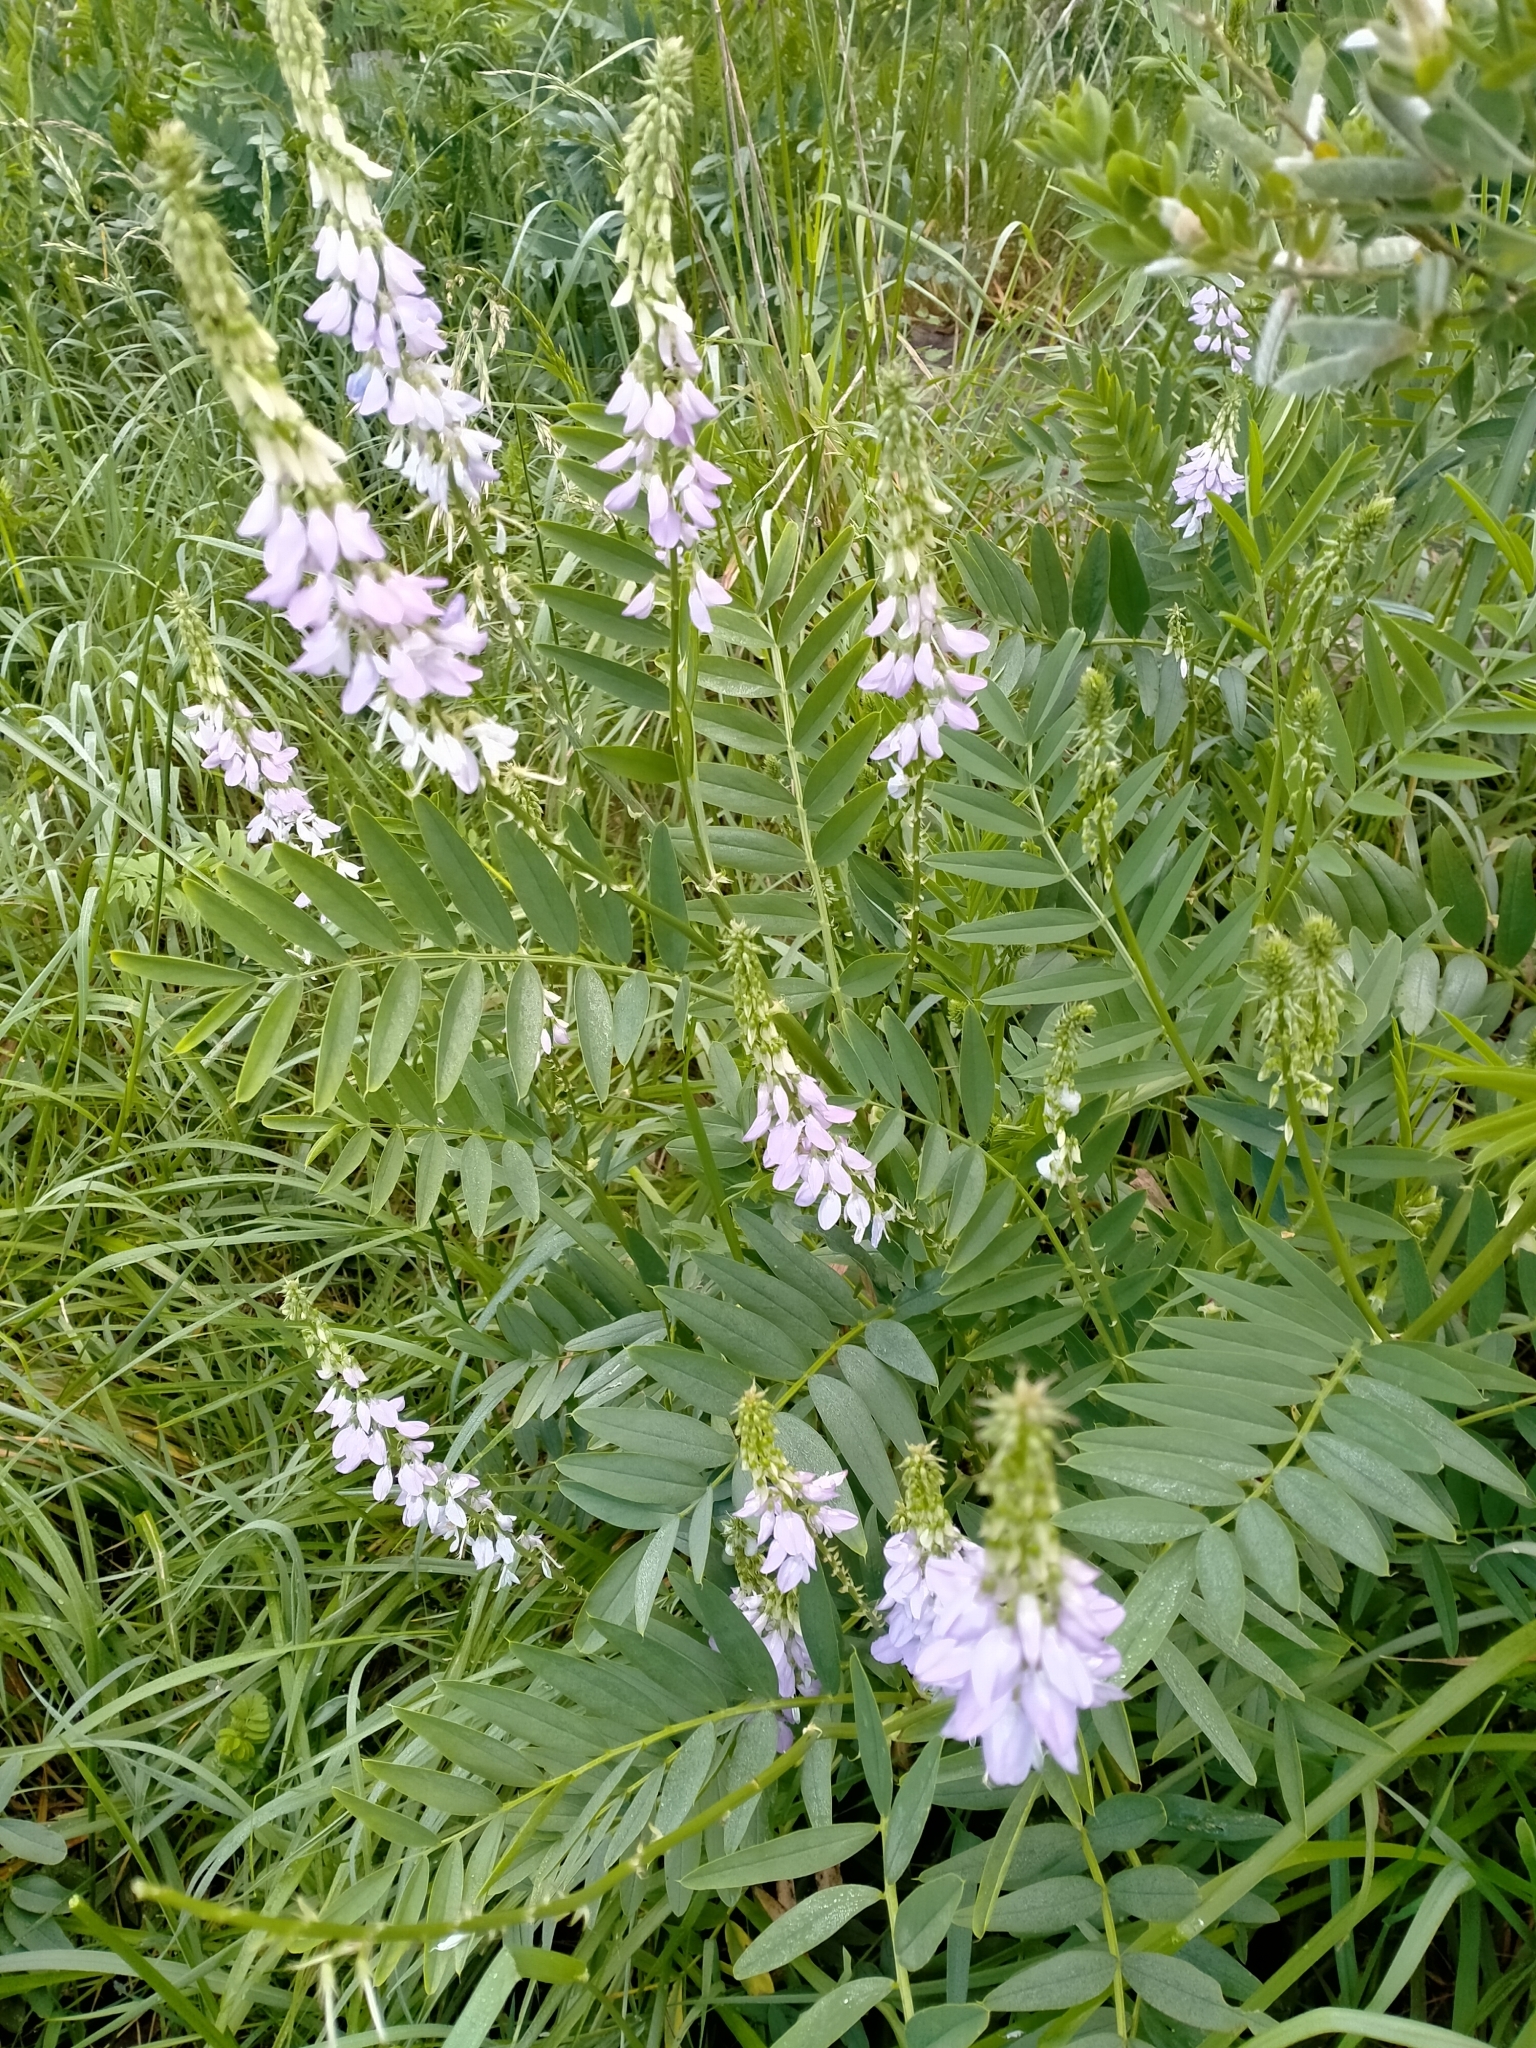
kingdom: Plantae
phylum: Tracheophyta
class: Magnoliopsida
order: Fabales
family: Fabaceae
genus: Galega
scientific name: Galega officinalis
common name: Goat's-rue
